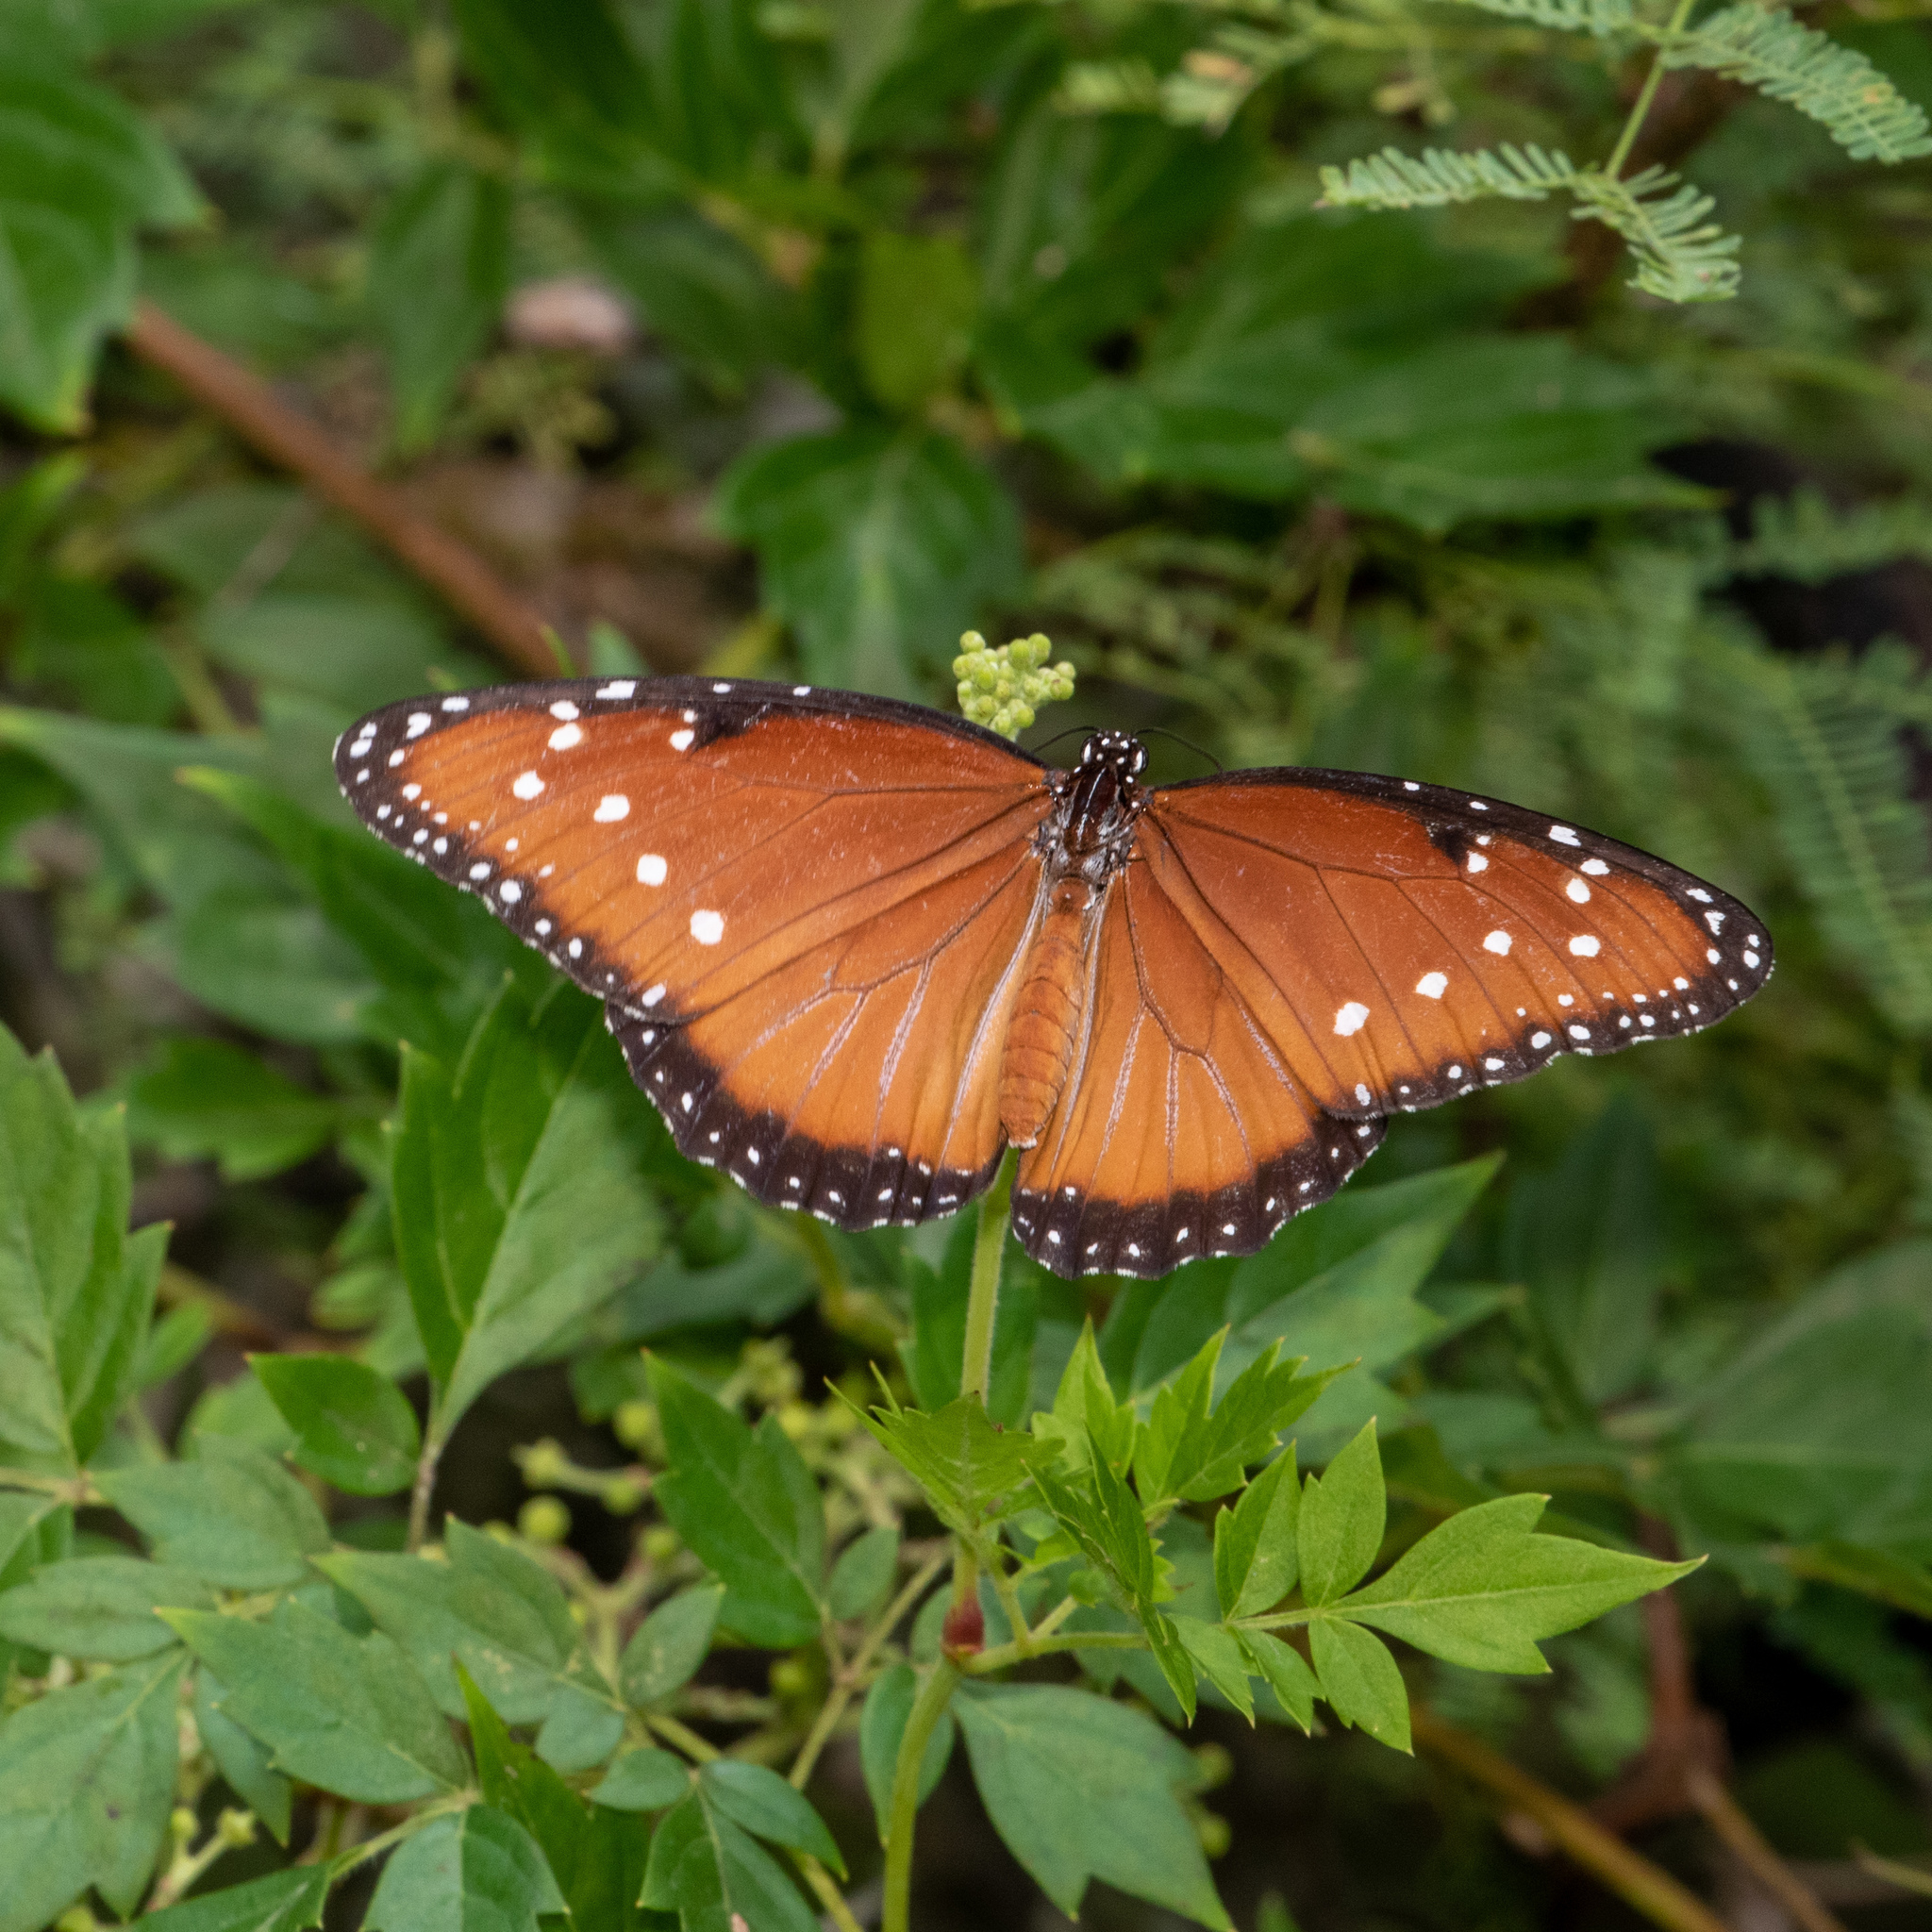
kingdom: Animalia
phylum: Arthropoda
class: Insecta
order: Lepidoptera
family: Nymphalidae
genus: Danaus
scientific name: Danaus gilippus
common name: Queen
